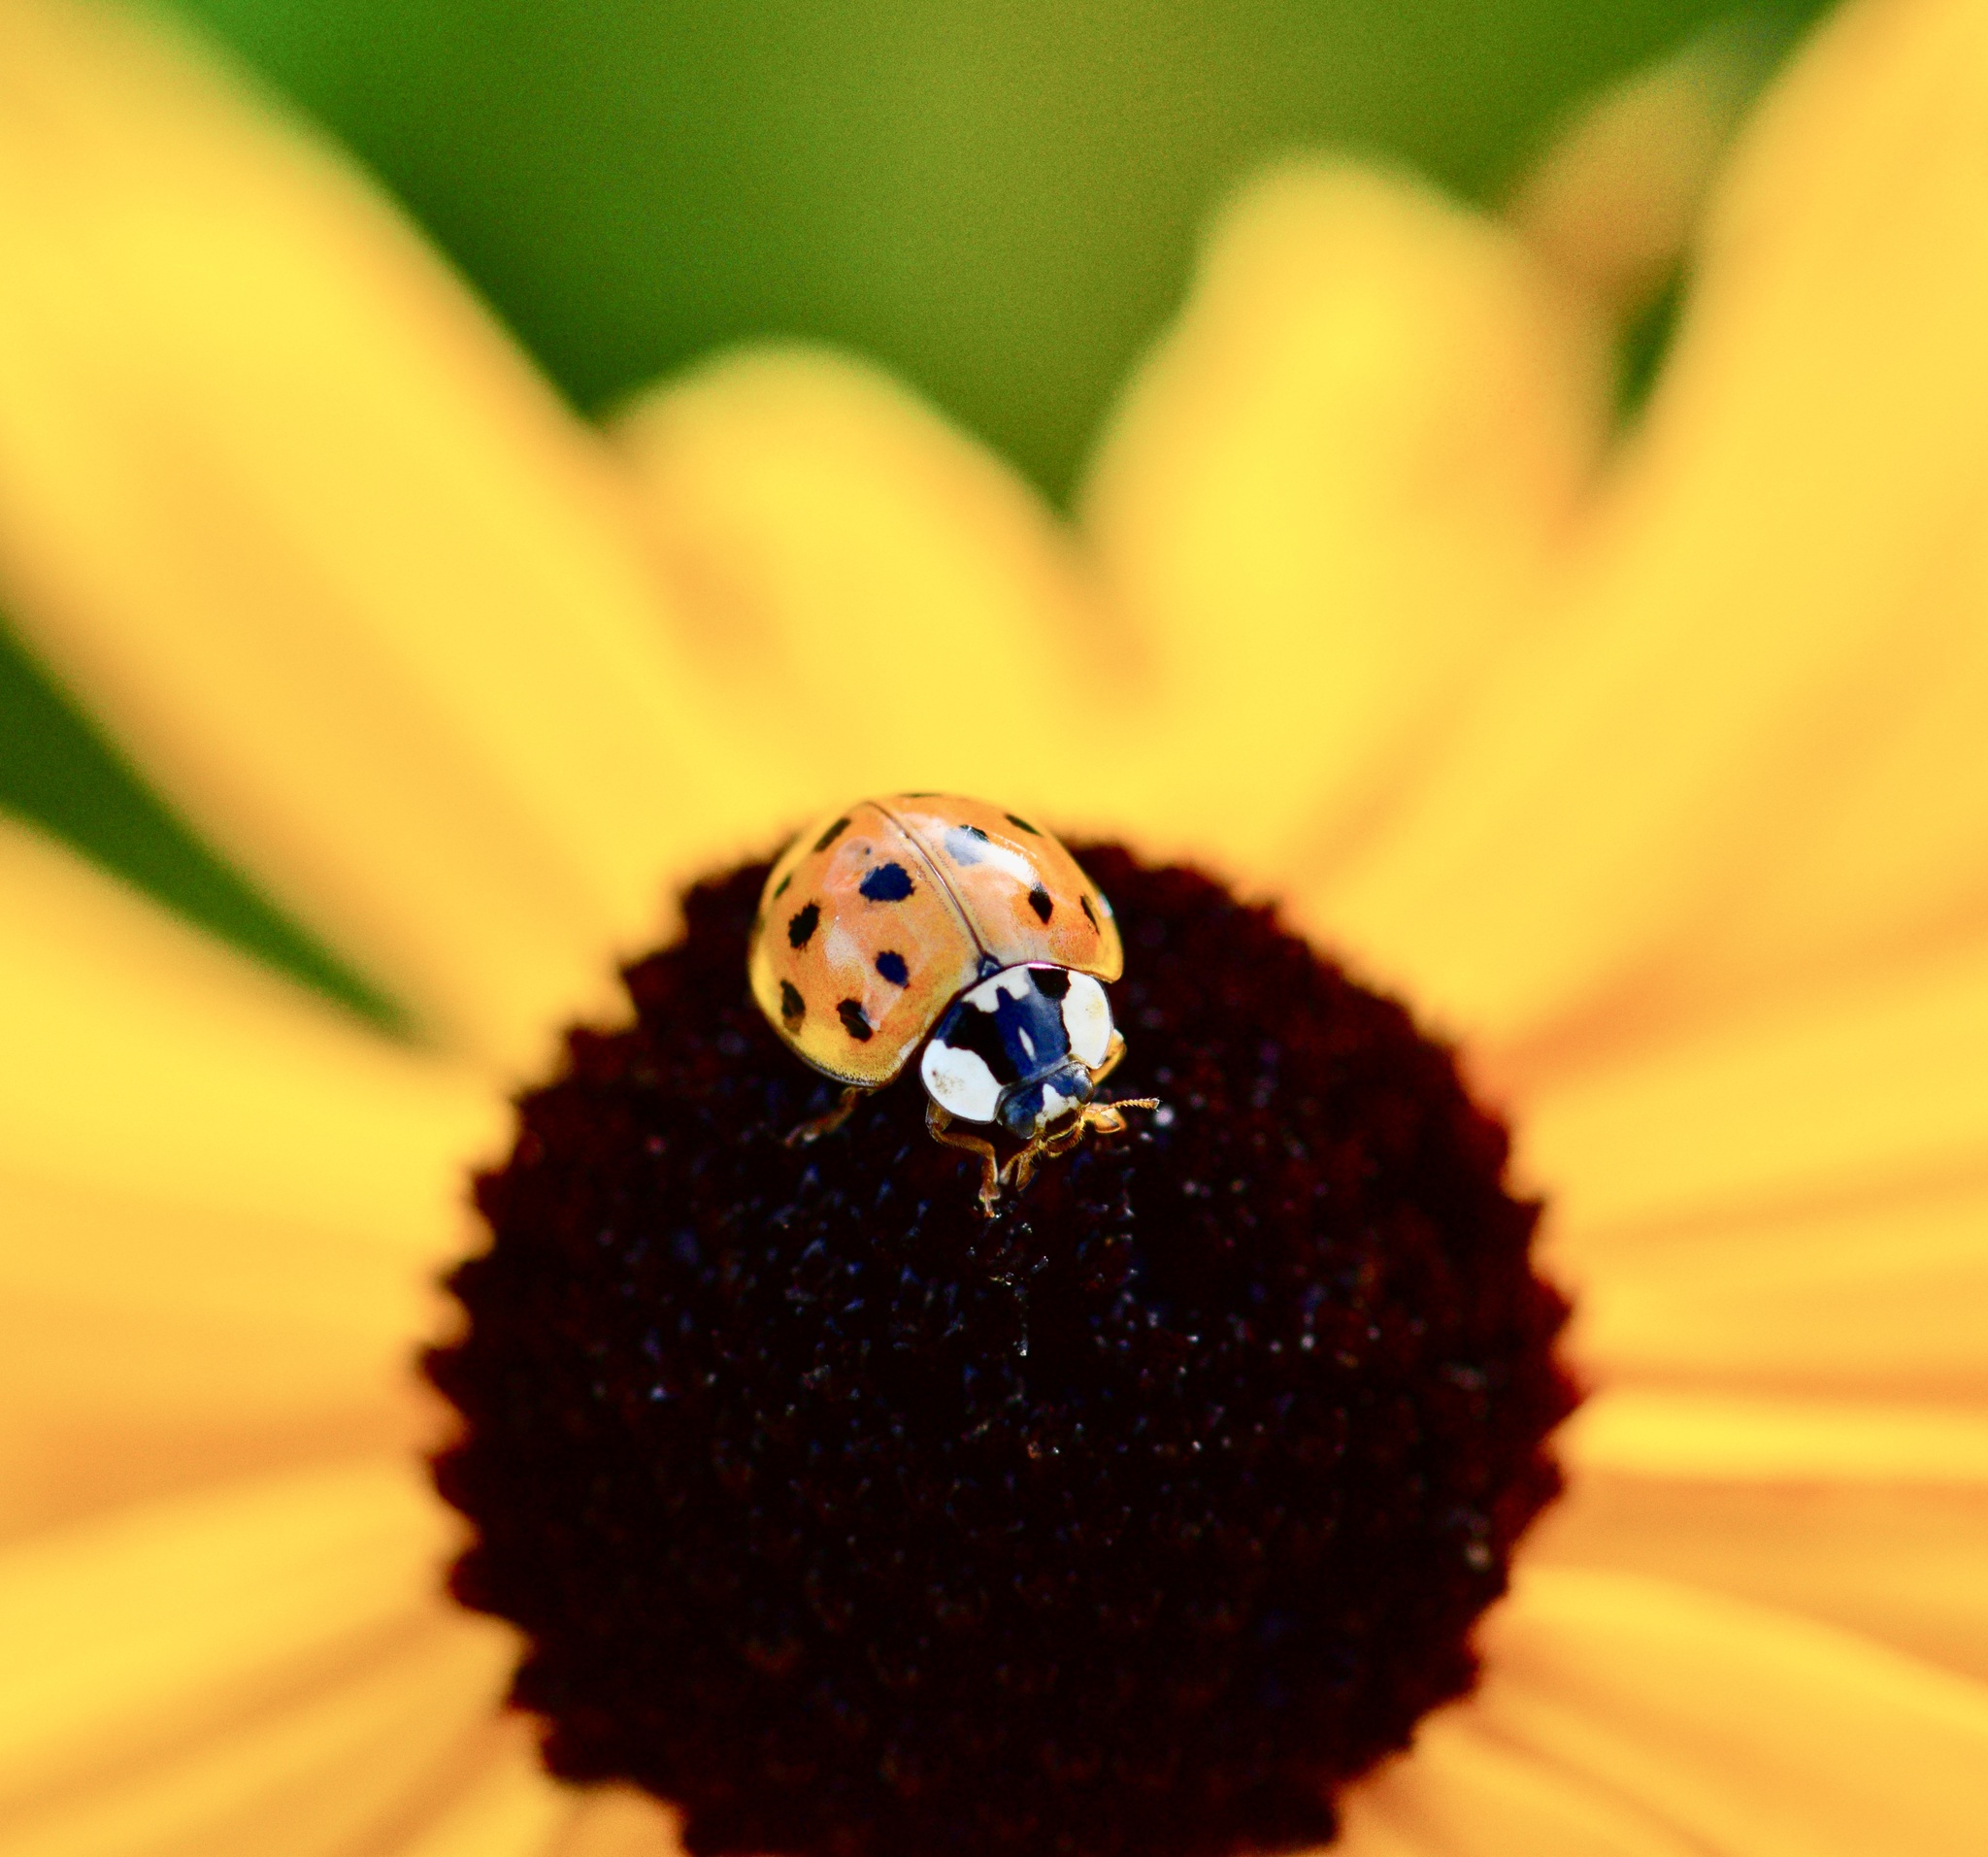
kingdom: Animalia
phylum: Arthropoda
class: Insecta
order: Coleoptera
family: Coccinellidae
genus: Harmonia
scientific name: Harmonia axyridis
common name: Harlequin ladybird
